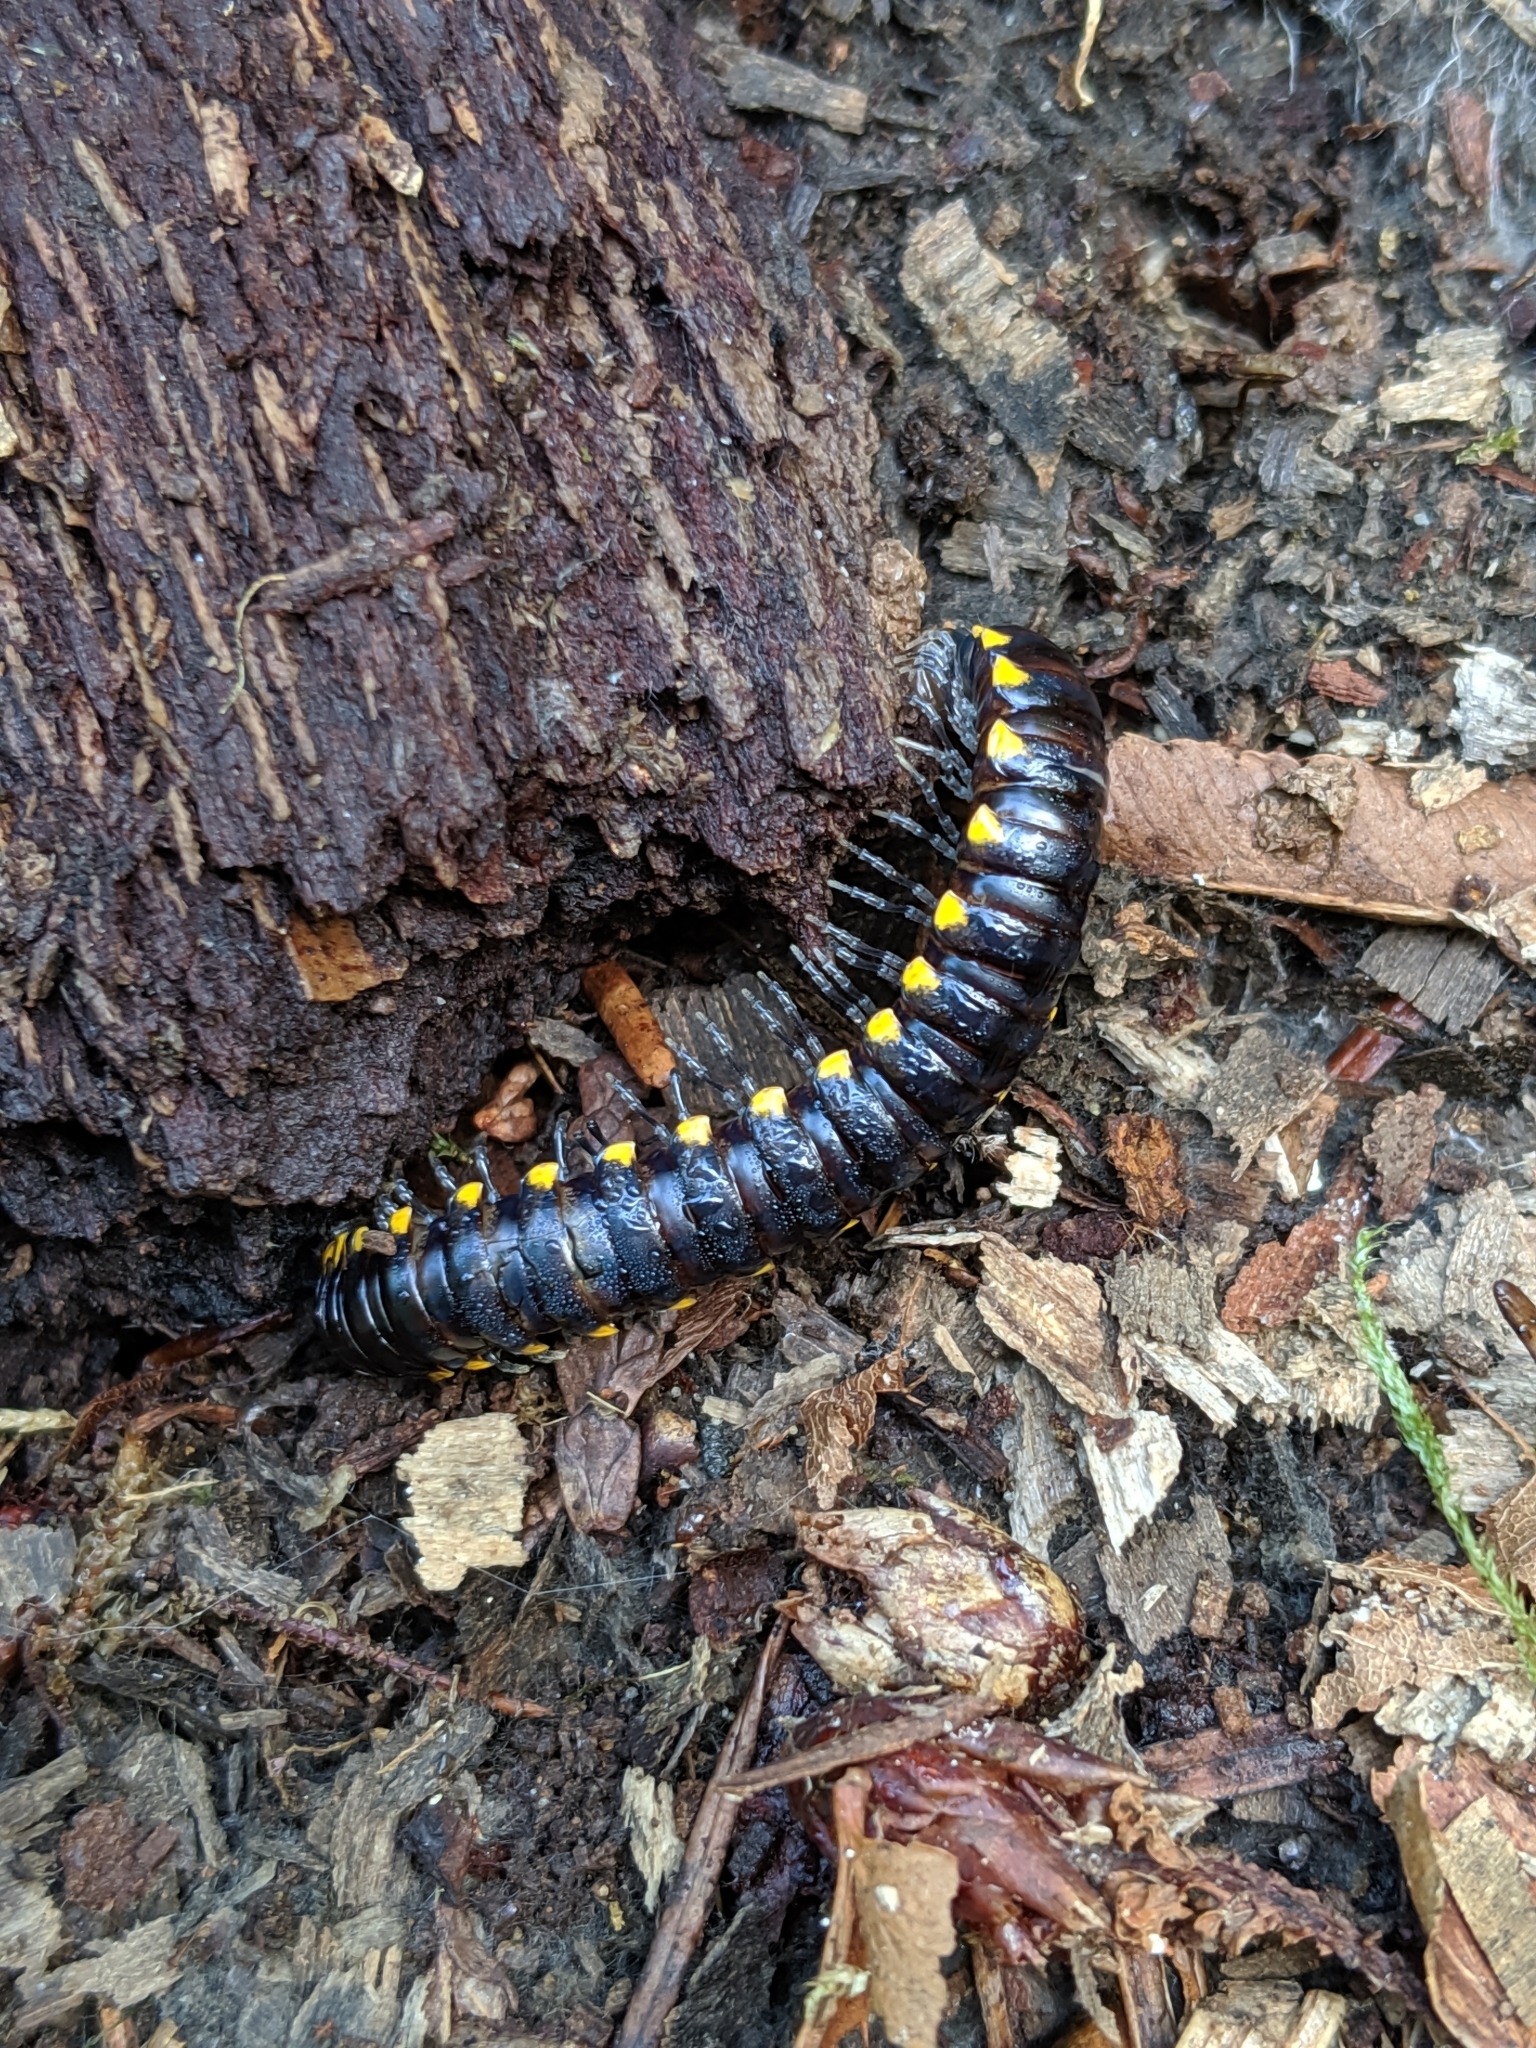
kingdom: Animalia
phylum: Arthropoda
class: Diplopoda
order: Polydesmida
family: Xystodesmidae
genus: Harpaphe
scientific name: Harpaphe haydeniana
